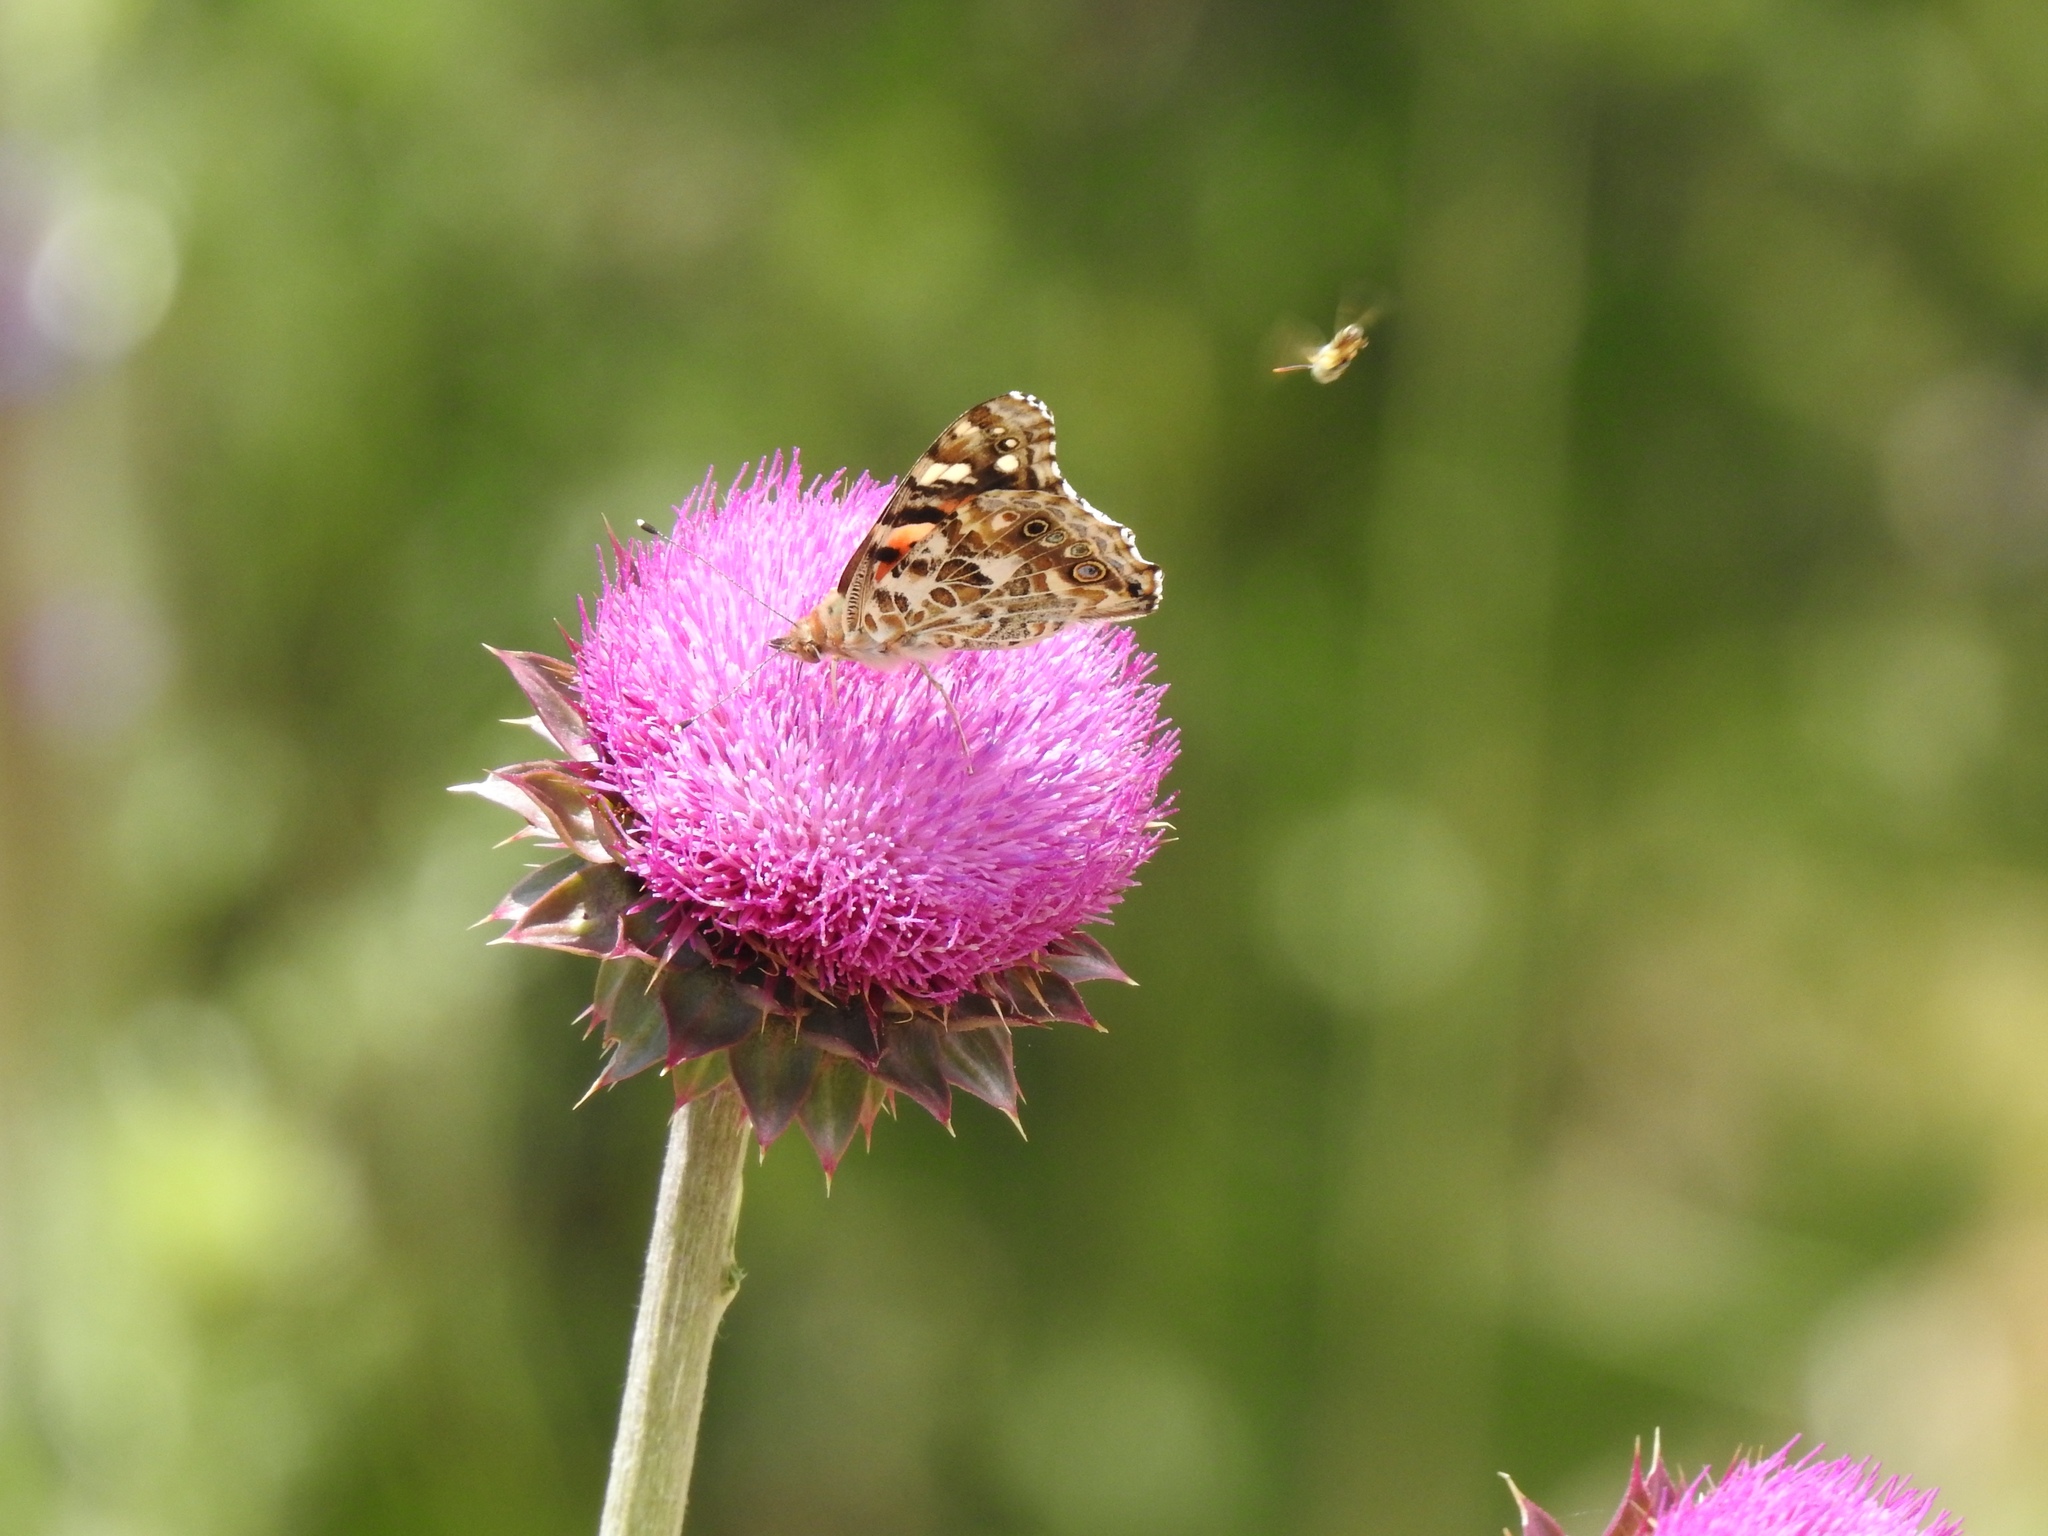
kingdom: Animalia
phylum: Arthropoda
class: Insecta
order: Lepidoptera
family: Nymphalidae
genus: Vanessa
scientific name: Vanessa cardui
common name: Painted lady
